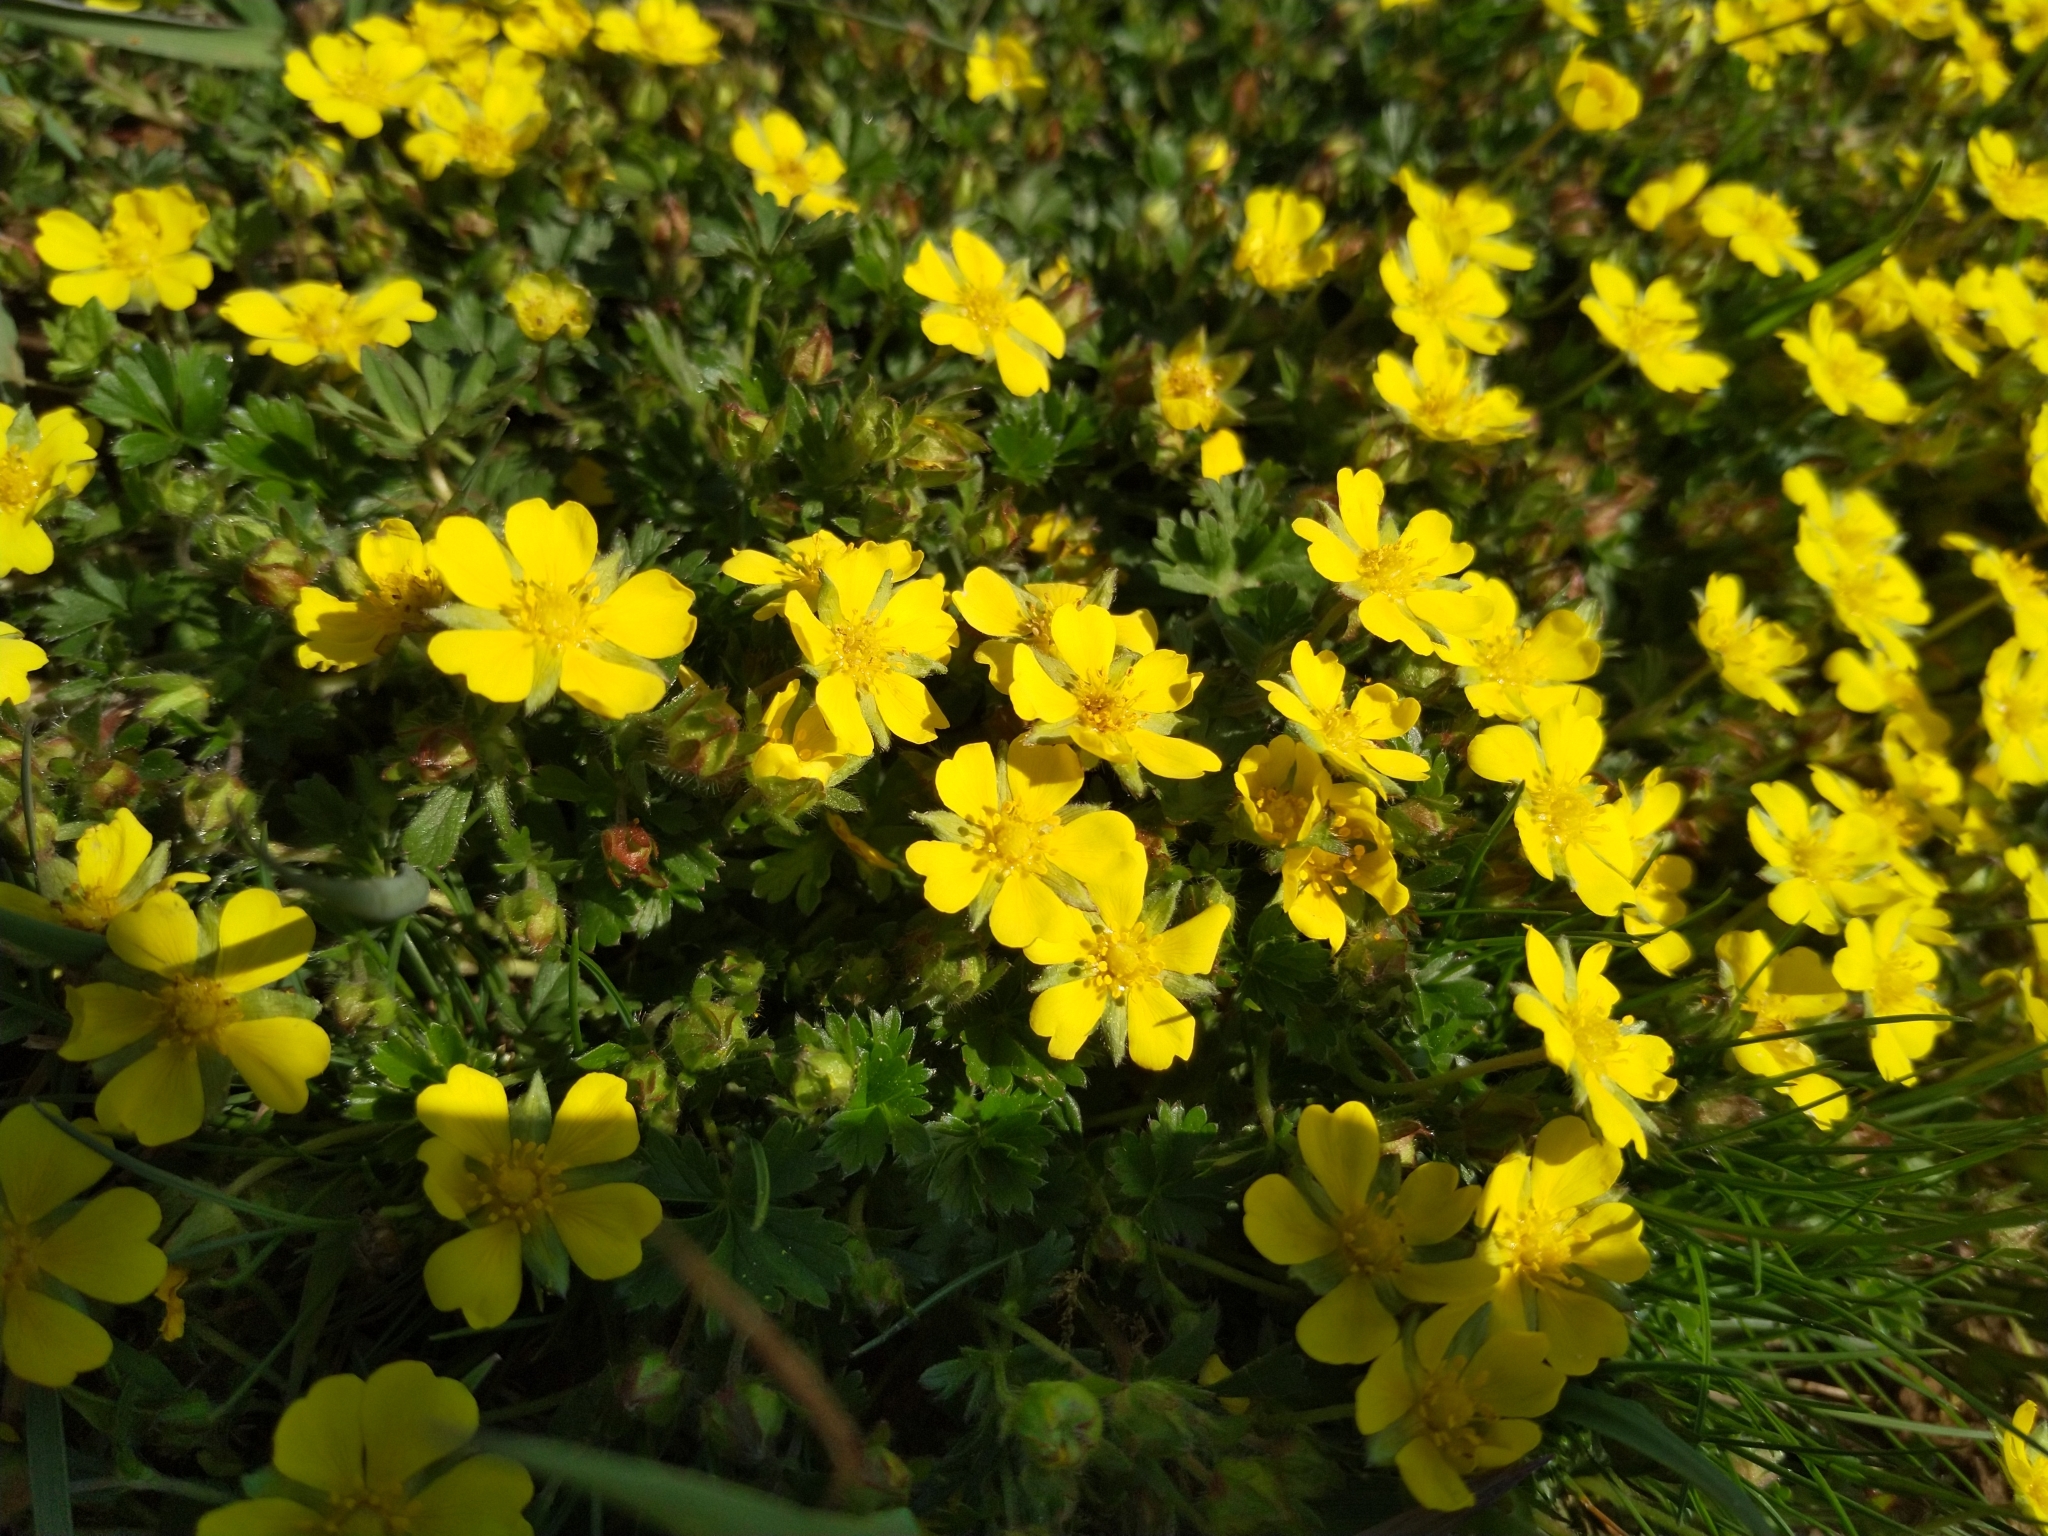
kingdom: Plantae
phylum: Tracheophyta
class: Magnoliopsida
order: Rosales
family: Rosaceae
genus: Potentilla
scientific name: Potentilla verna
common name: Spring cinquefoil
